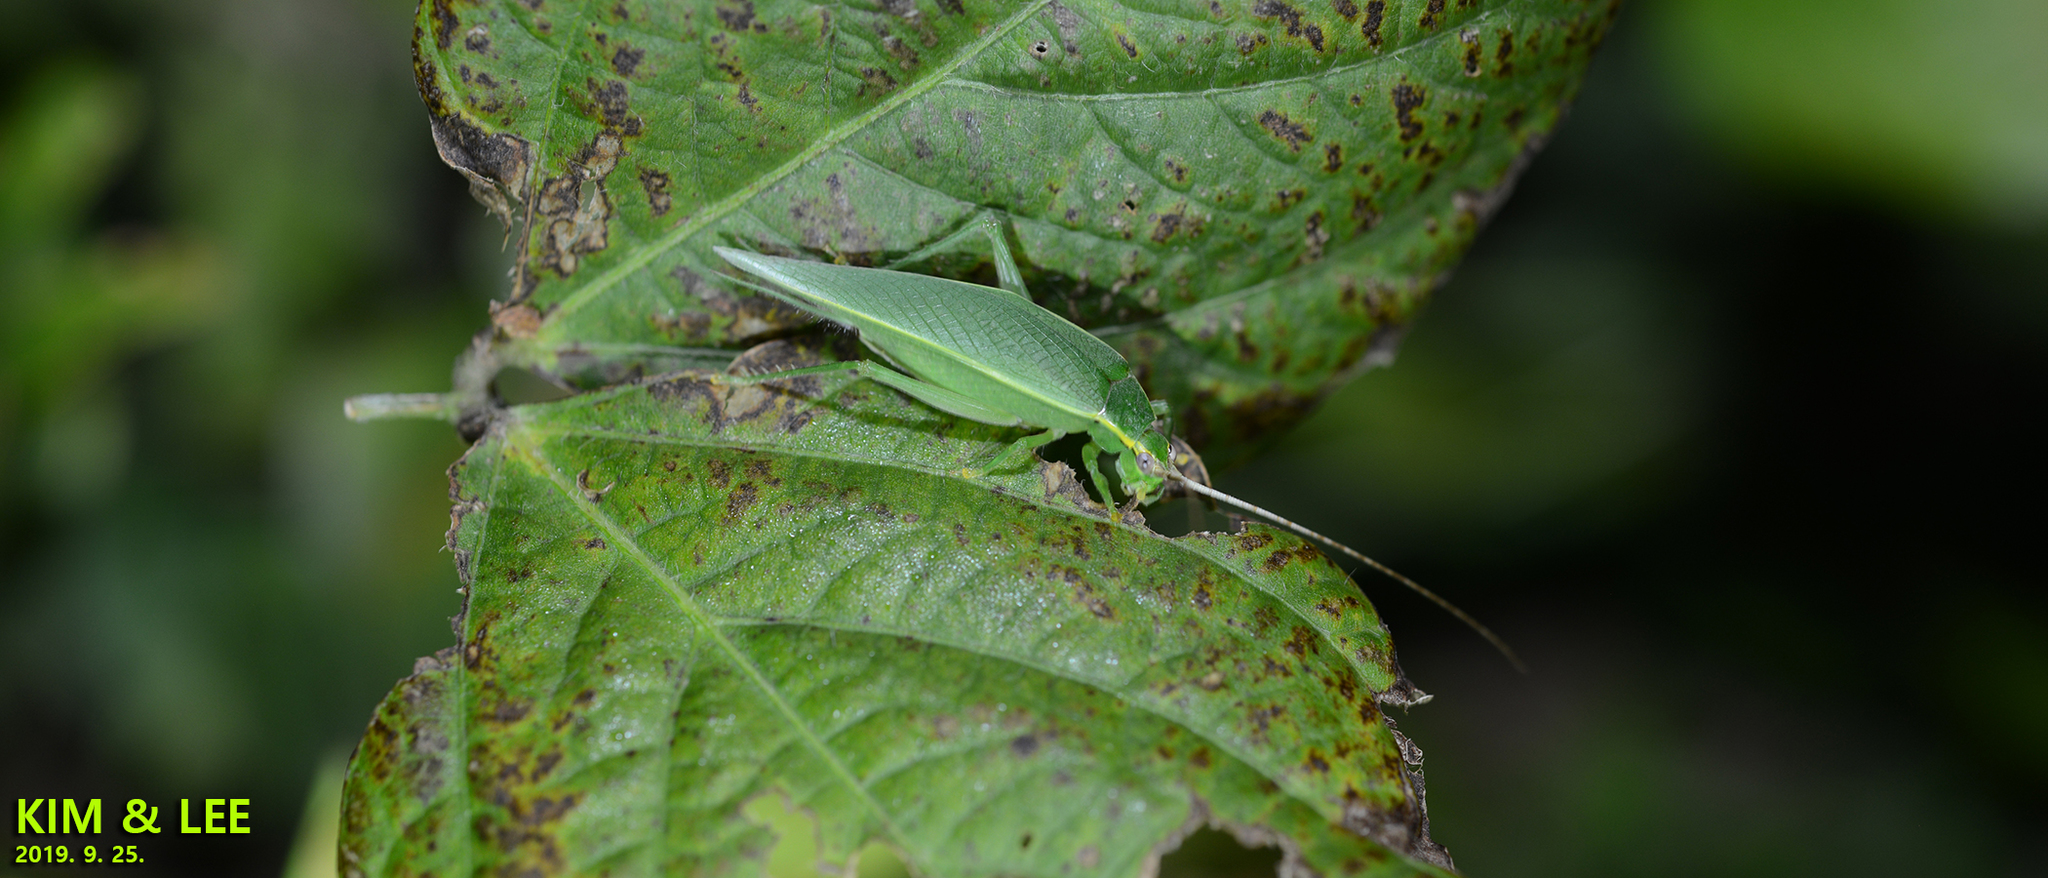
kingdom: Animalia
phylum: Arthropoda
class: Insecta
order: Orthoptera
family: Gryllidae
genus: Truljalia
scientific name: Truljalia hibinonis
